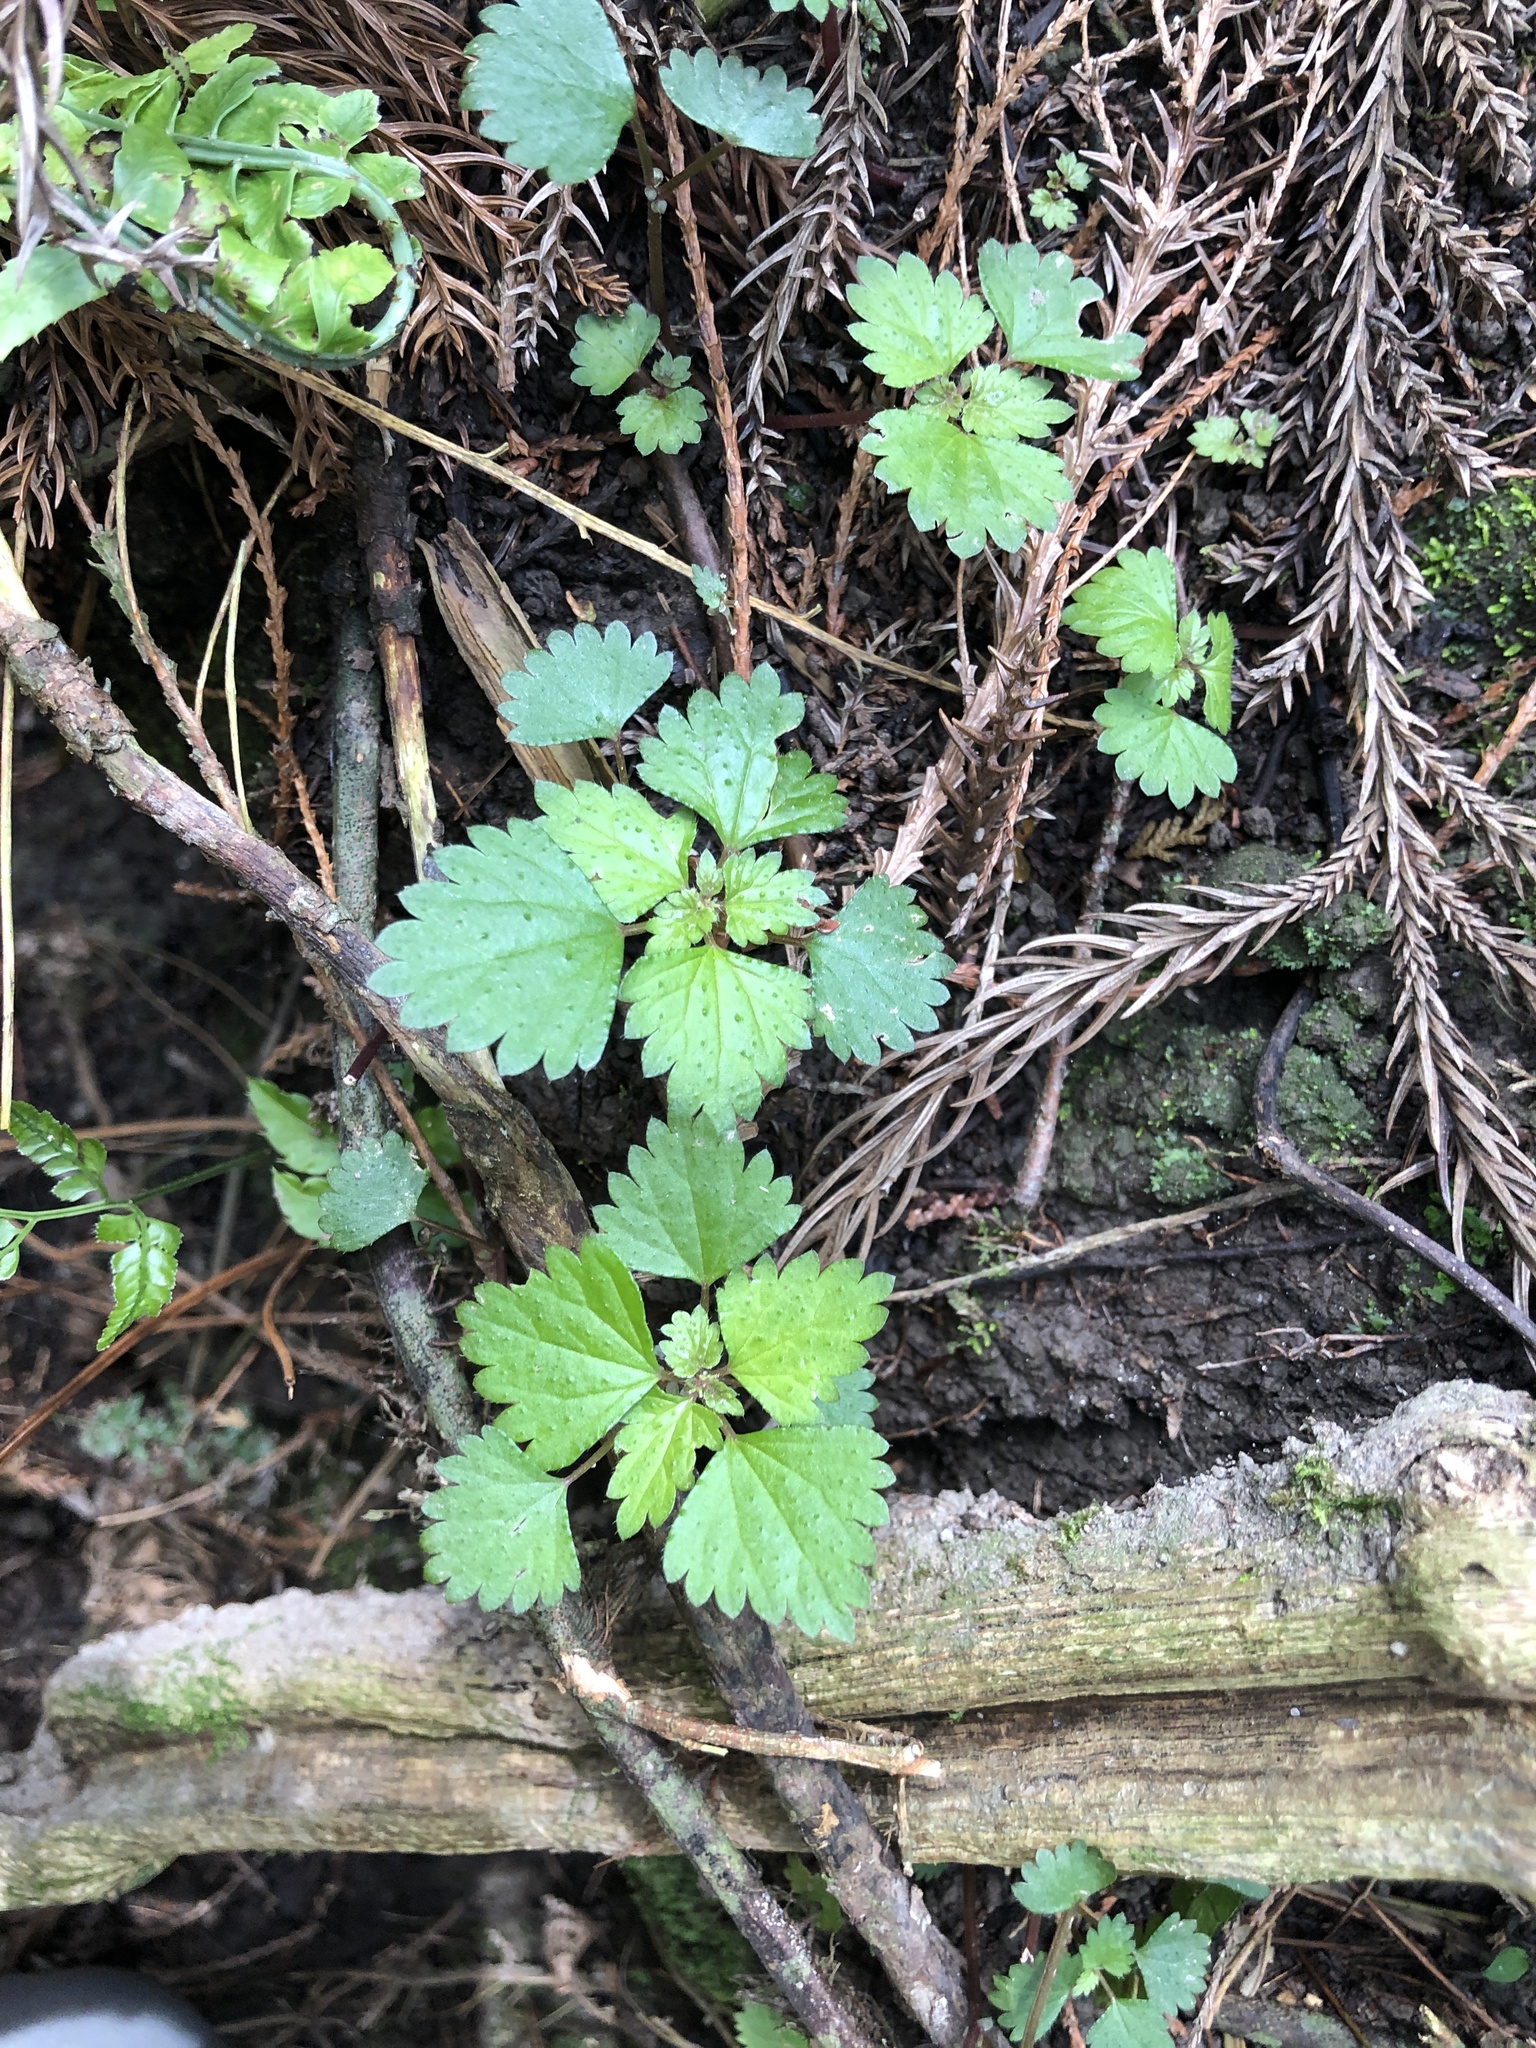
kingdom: Plantae
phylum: Tracheophyta
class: Magnoliopsida
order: Rosales
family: Urticaceae
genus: Urtica
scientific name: Urtica thunbergiana
